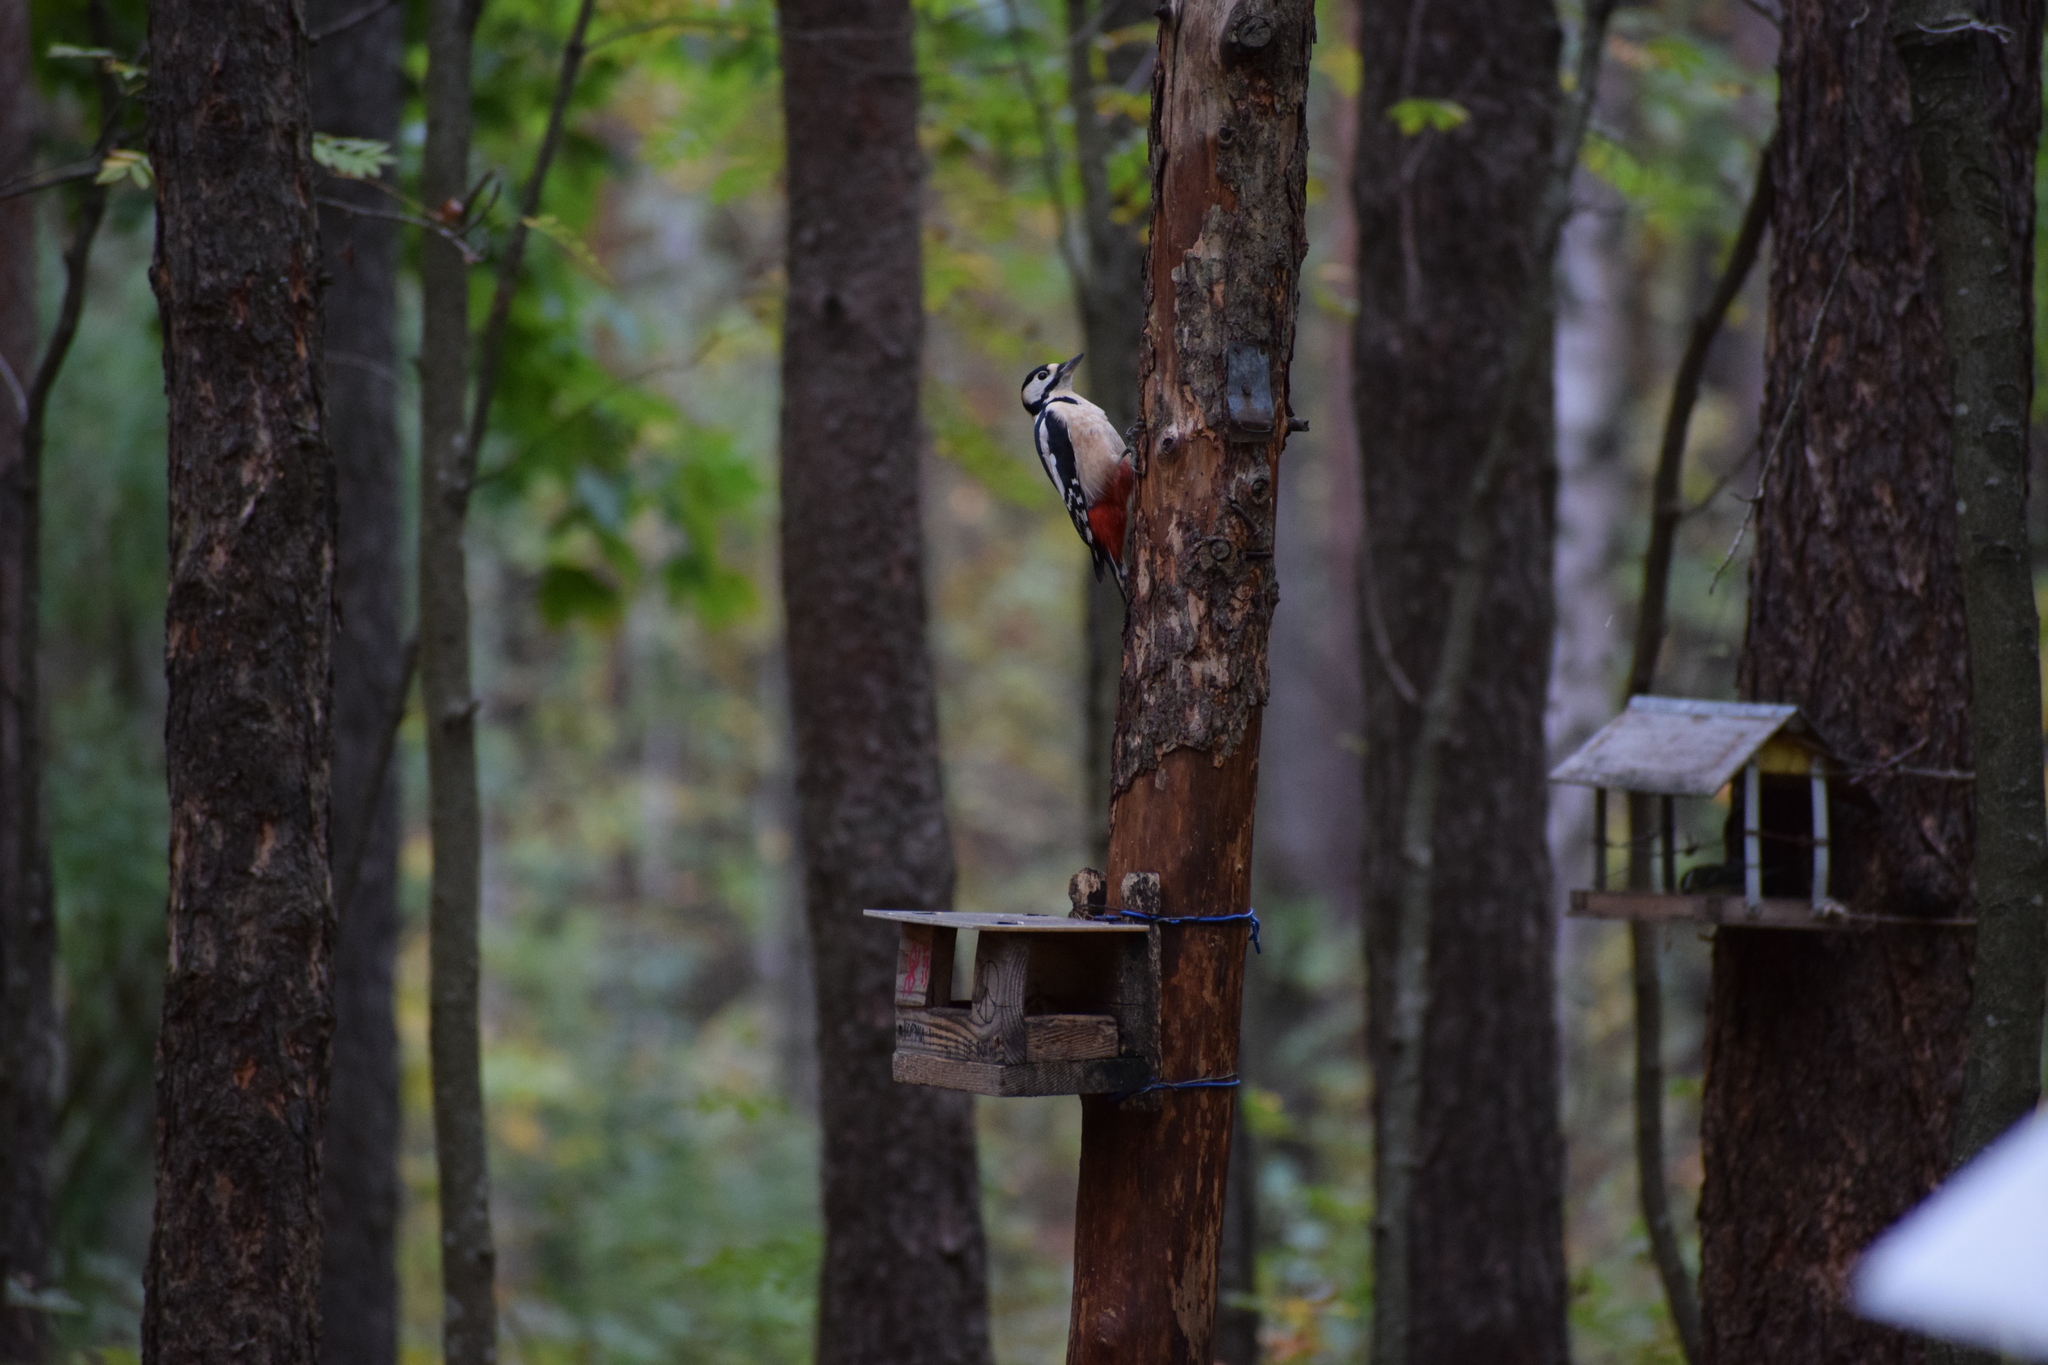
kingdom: Animalia
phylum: Chordata
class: Aves
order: Piciformes
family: Picidae
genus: Dendrocopos
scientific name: Dendrocopos major
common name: Great spotted woodpecker
